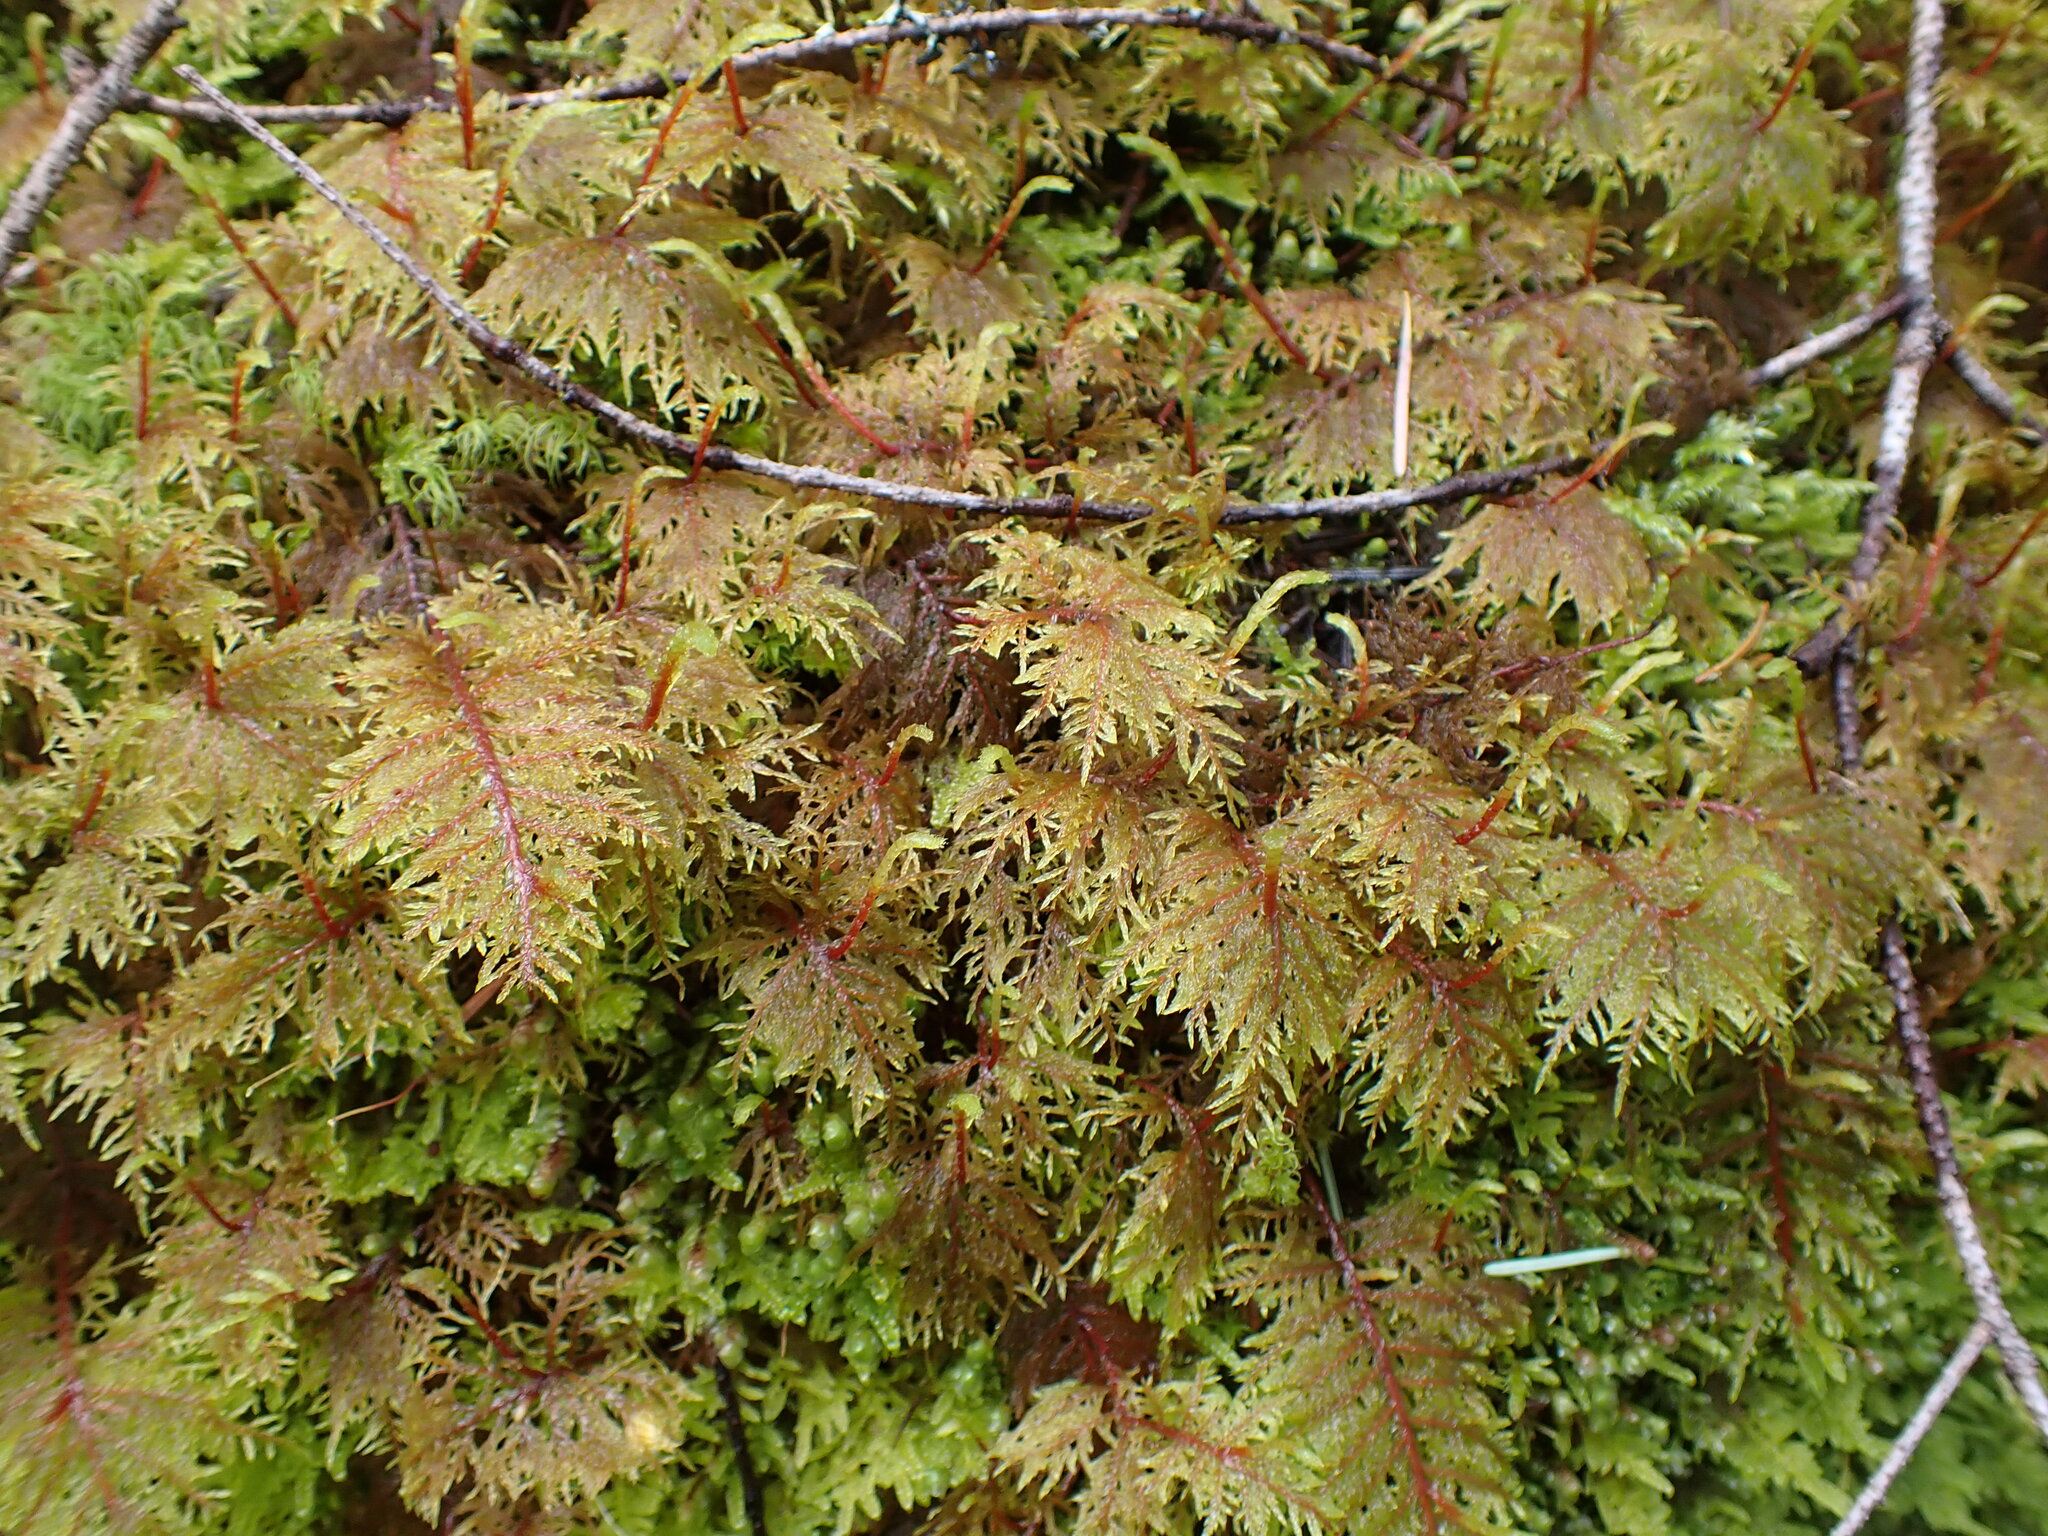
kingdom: Plantae
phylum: Bryophyta
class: Bryopsida
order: Hypnales
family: Hylocomiaceae
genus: Hylocomium
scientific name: Hylocomium splendens
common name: Stairstep moss
